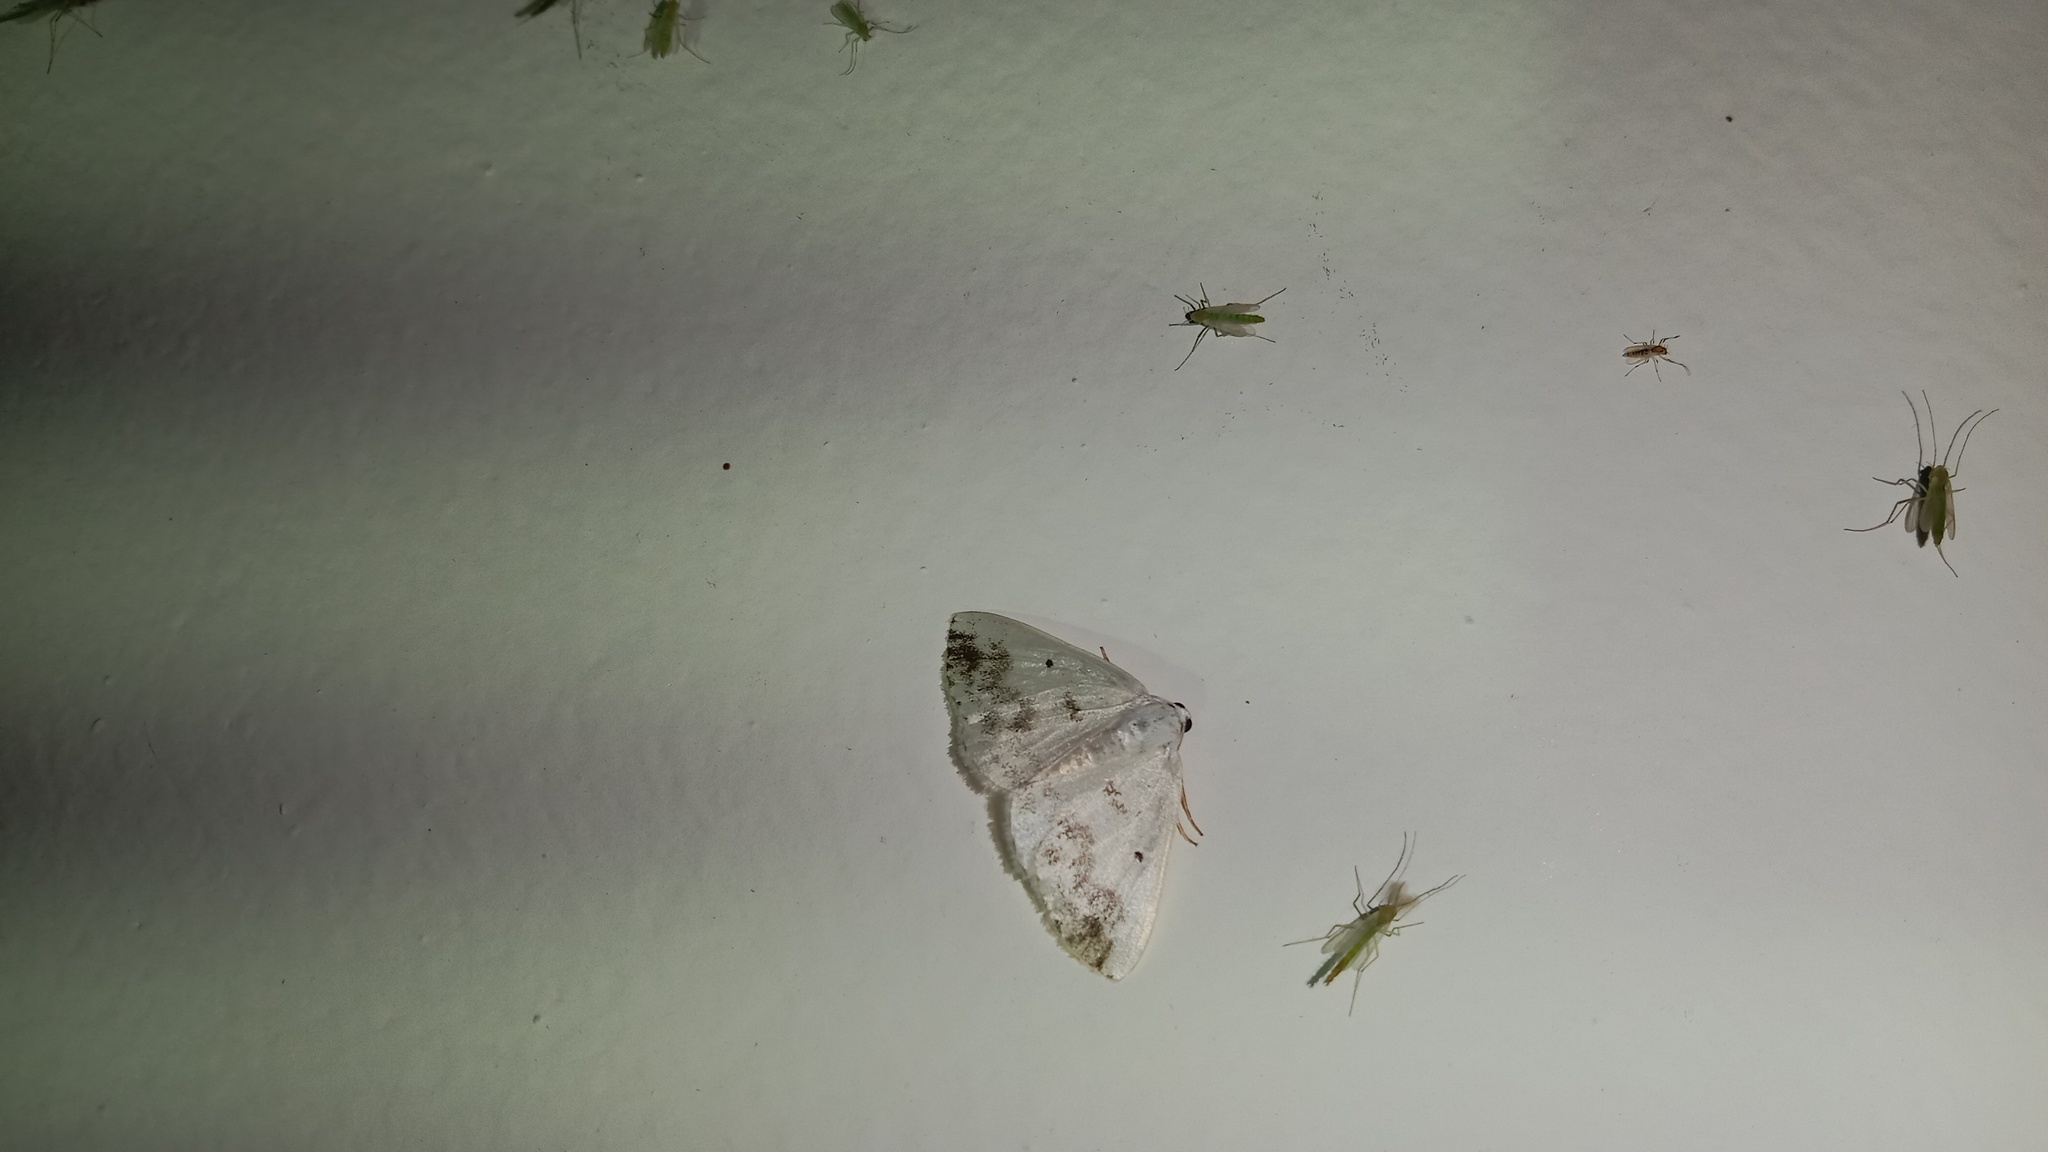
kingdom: Animalia
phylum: Arthropoda
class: Insecta
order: Lepidoptera
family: Geometridae
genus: Lomographa
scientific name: Lomographa temerata
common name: Clouded silver
